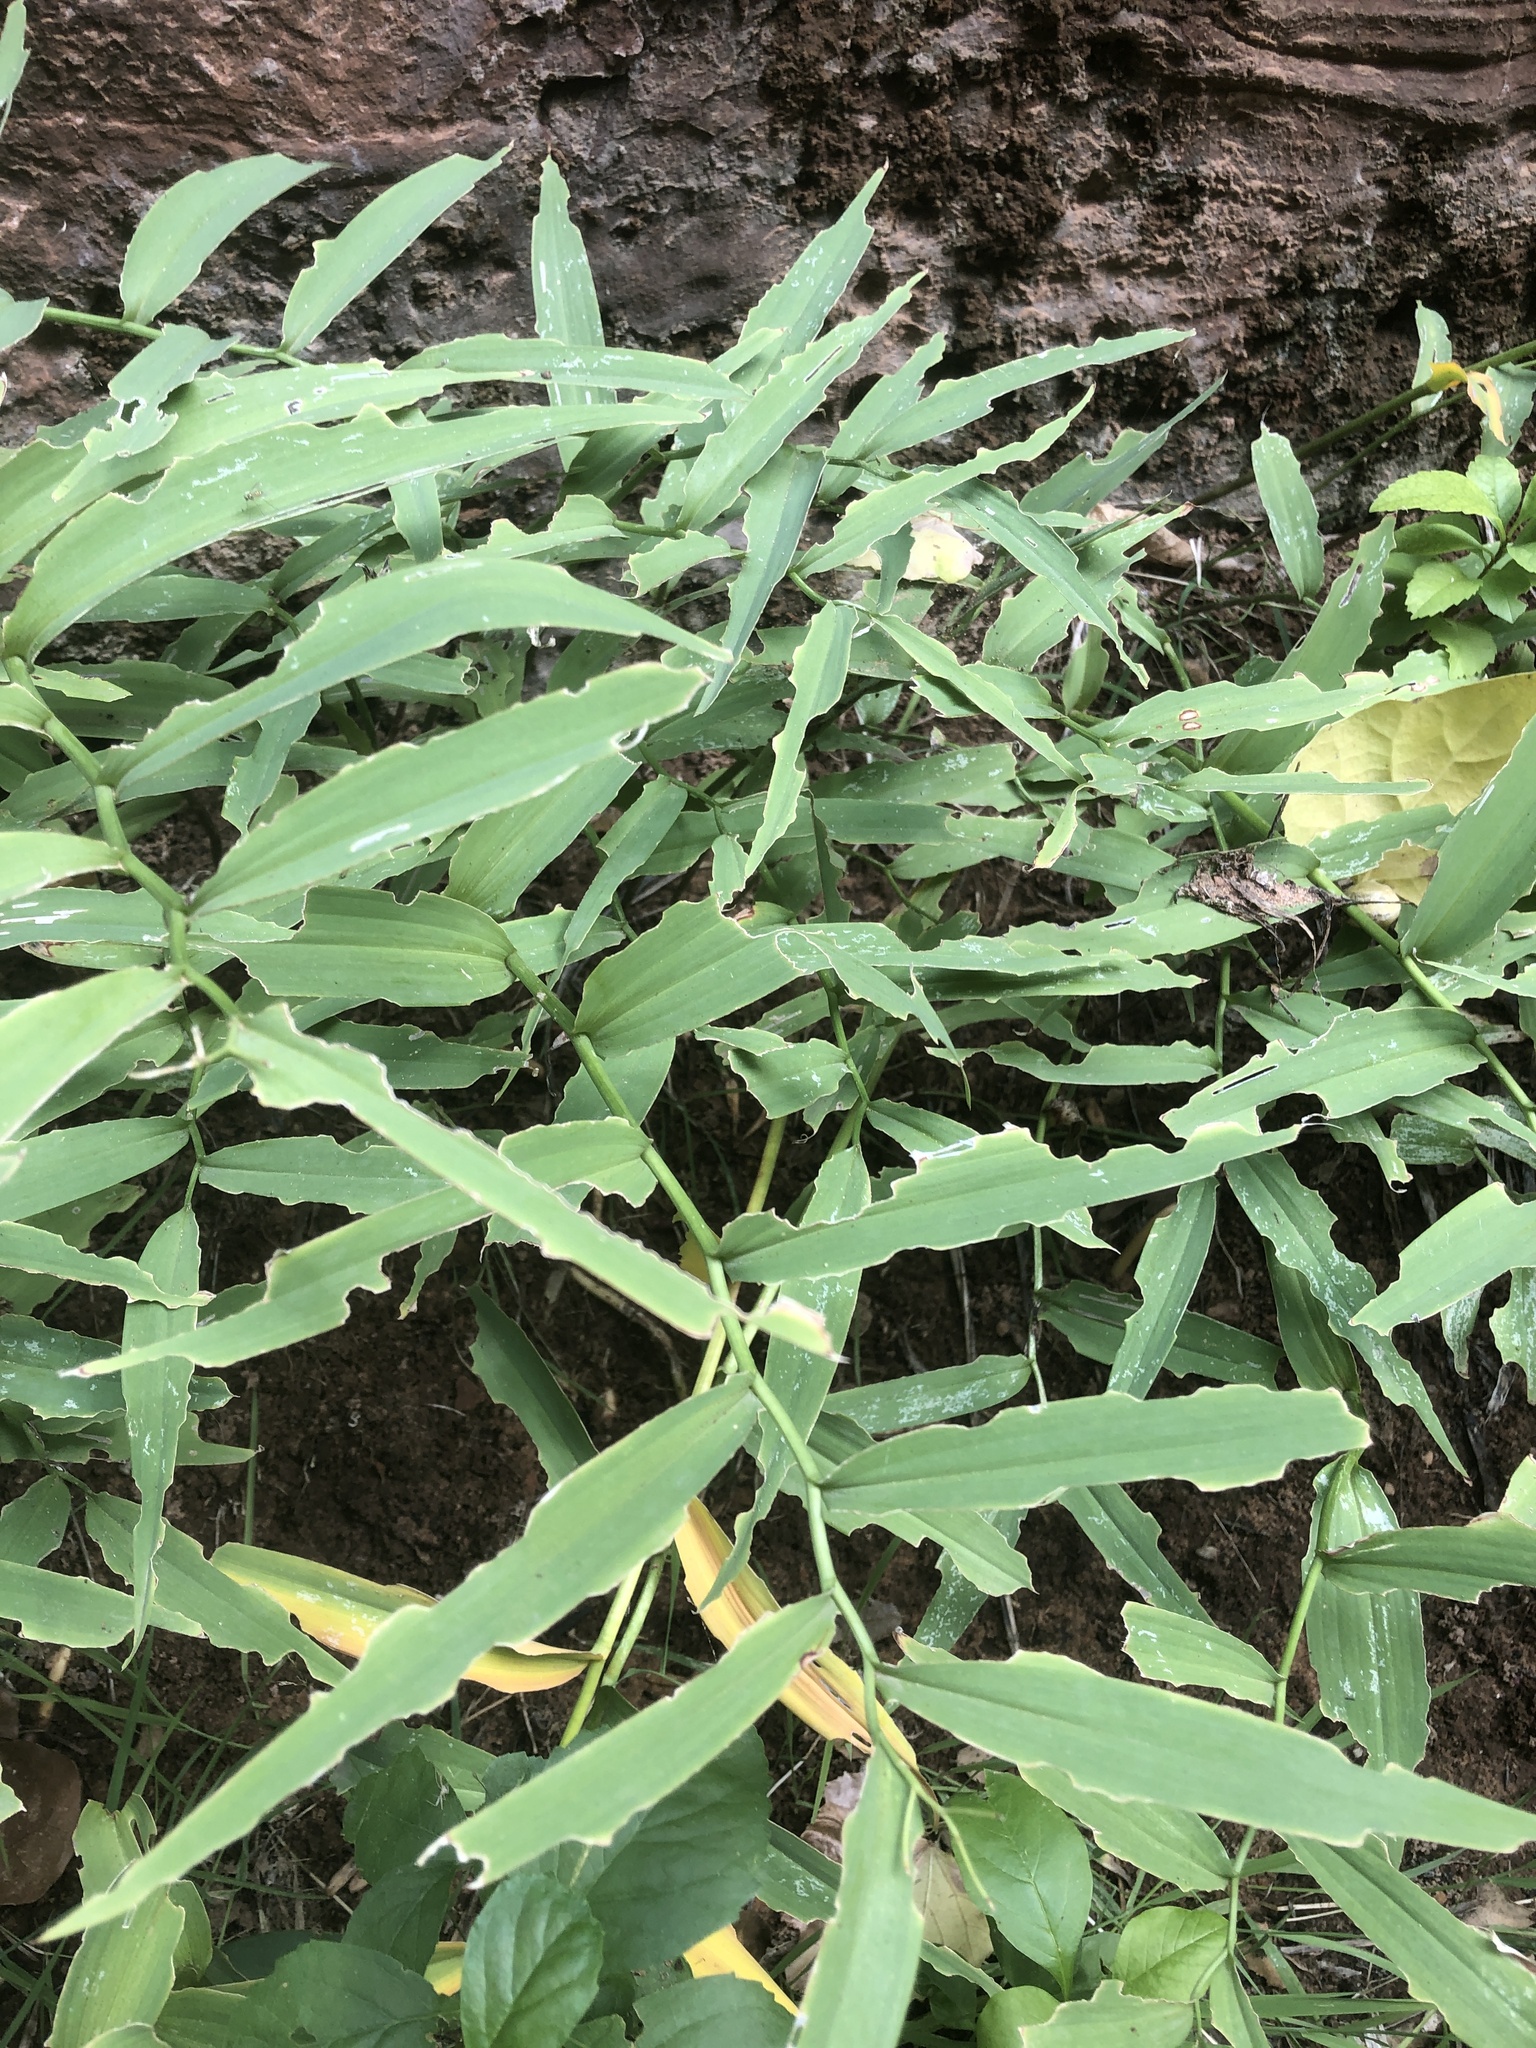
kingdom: Plantae
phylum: Tracheophyta
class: Liliopsida
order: Asparagales
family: Asparagaceae
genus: Maianthemum
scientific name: Maianthemum stellatum
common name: Little false solomon's seal
